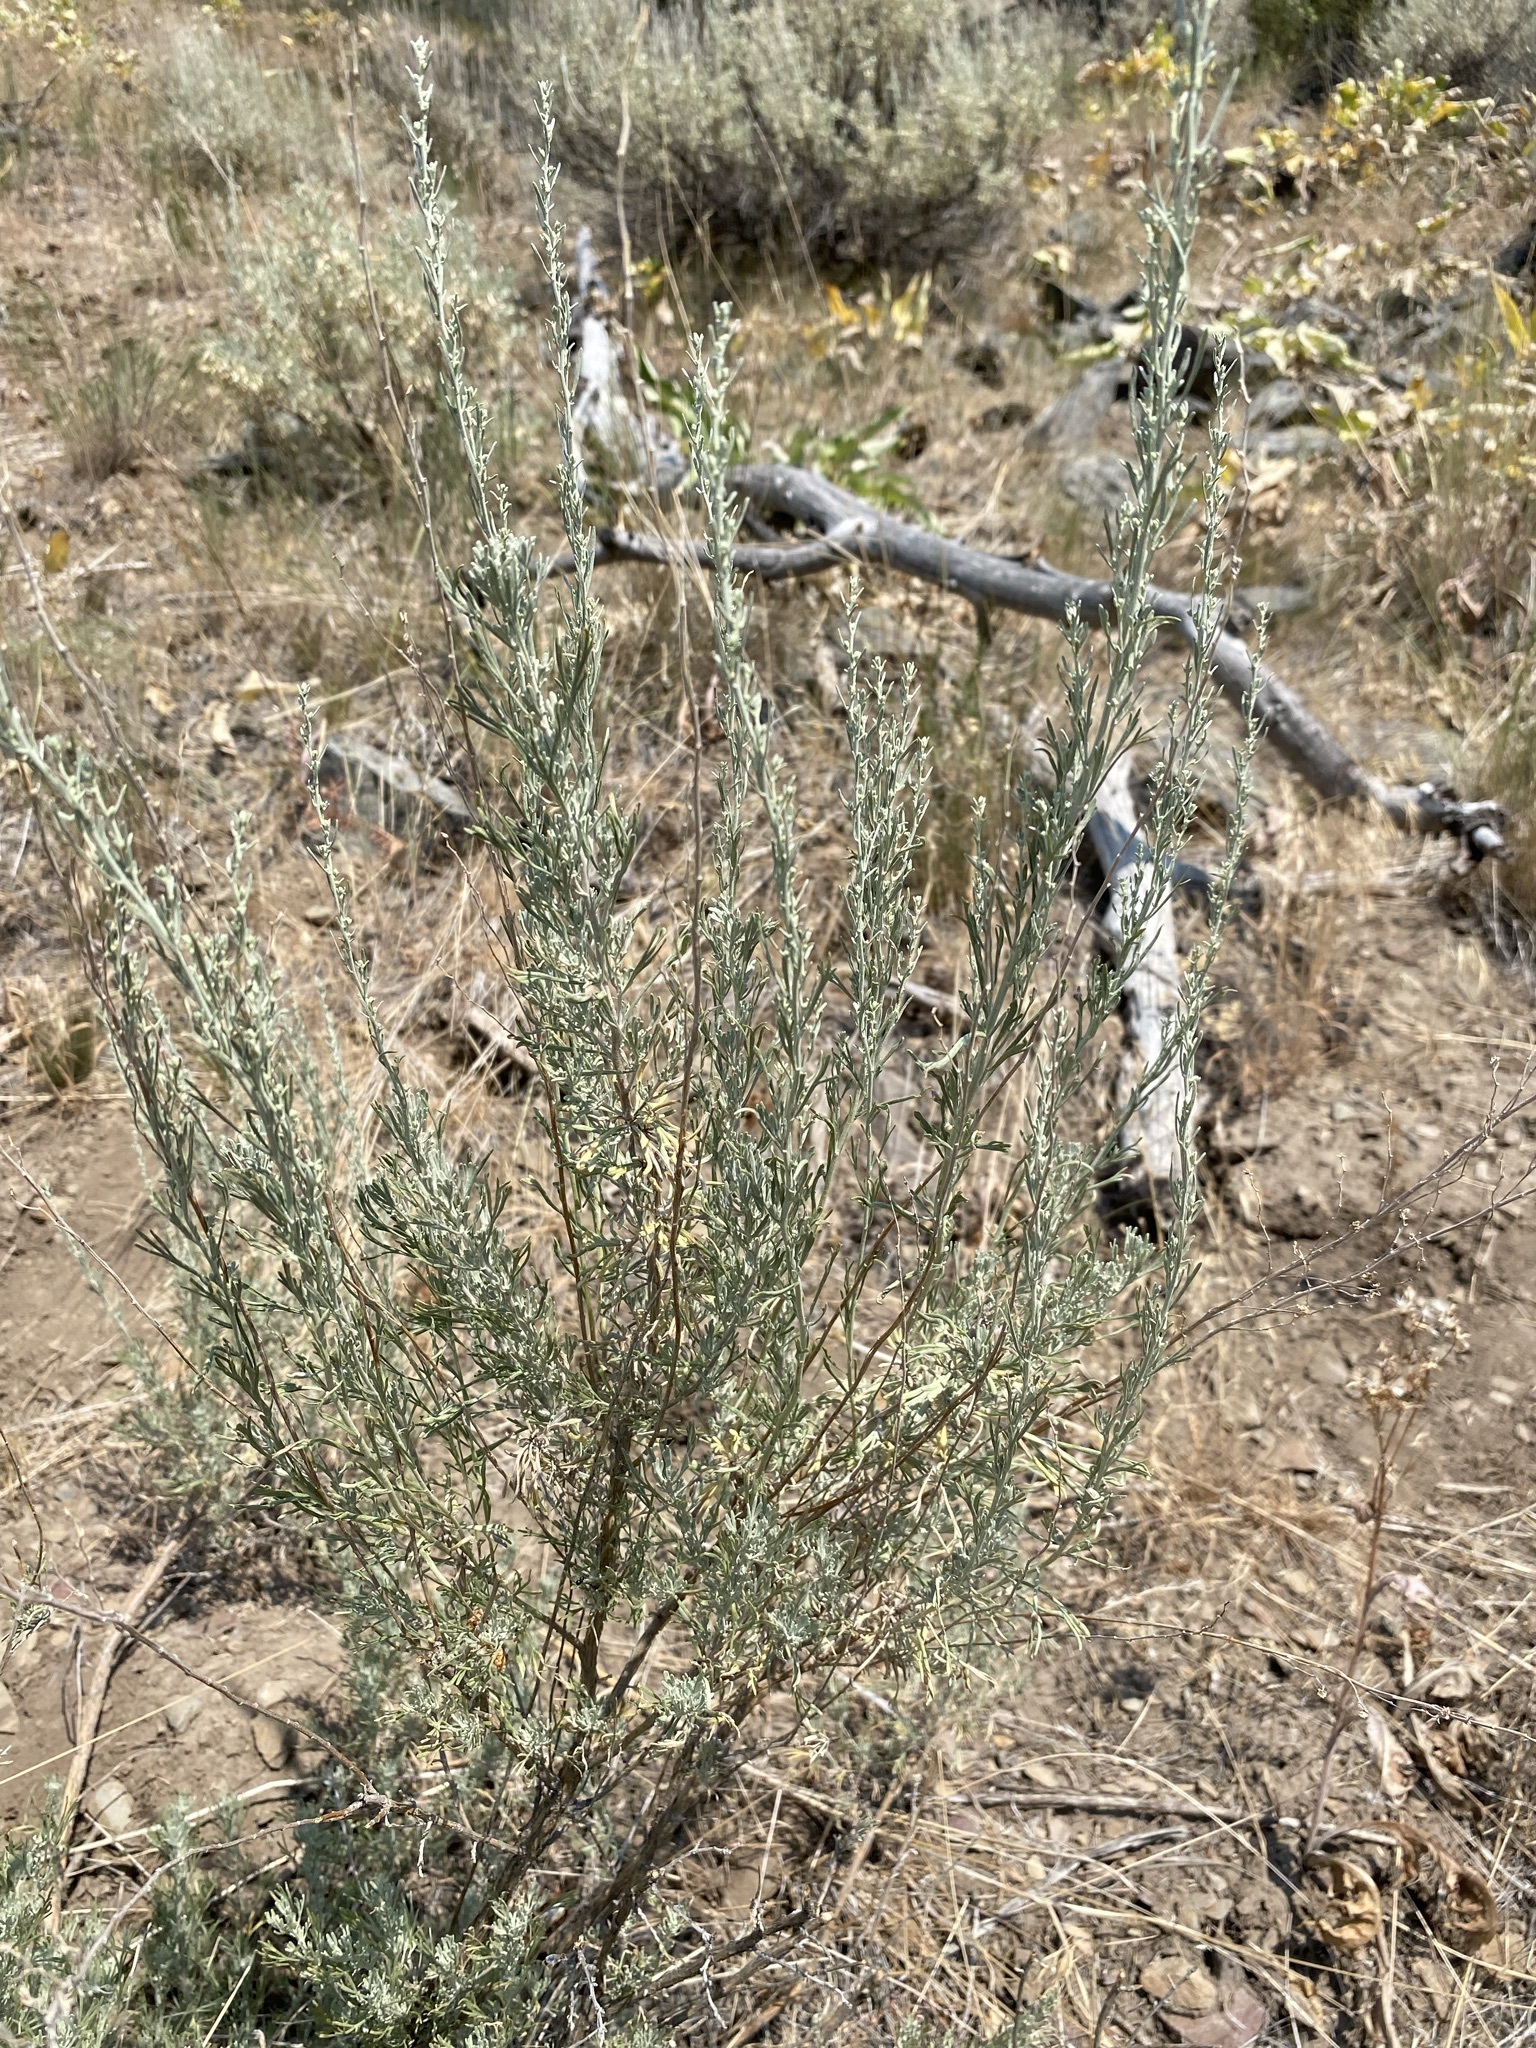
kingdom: Plantae
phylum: Tracheophyta
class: Magnoliopsida
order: Asterales
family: Asteraceae
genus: Artemisia
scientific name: Artemisia tripartita
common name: Three-tip sagebrush
